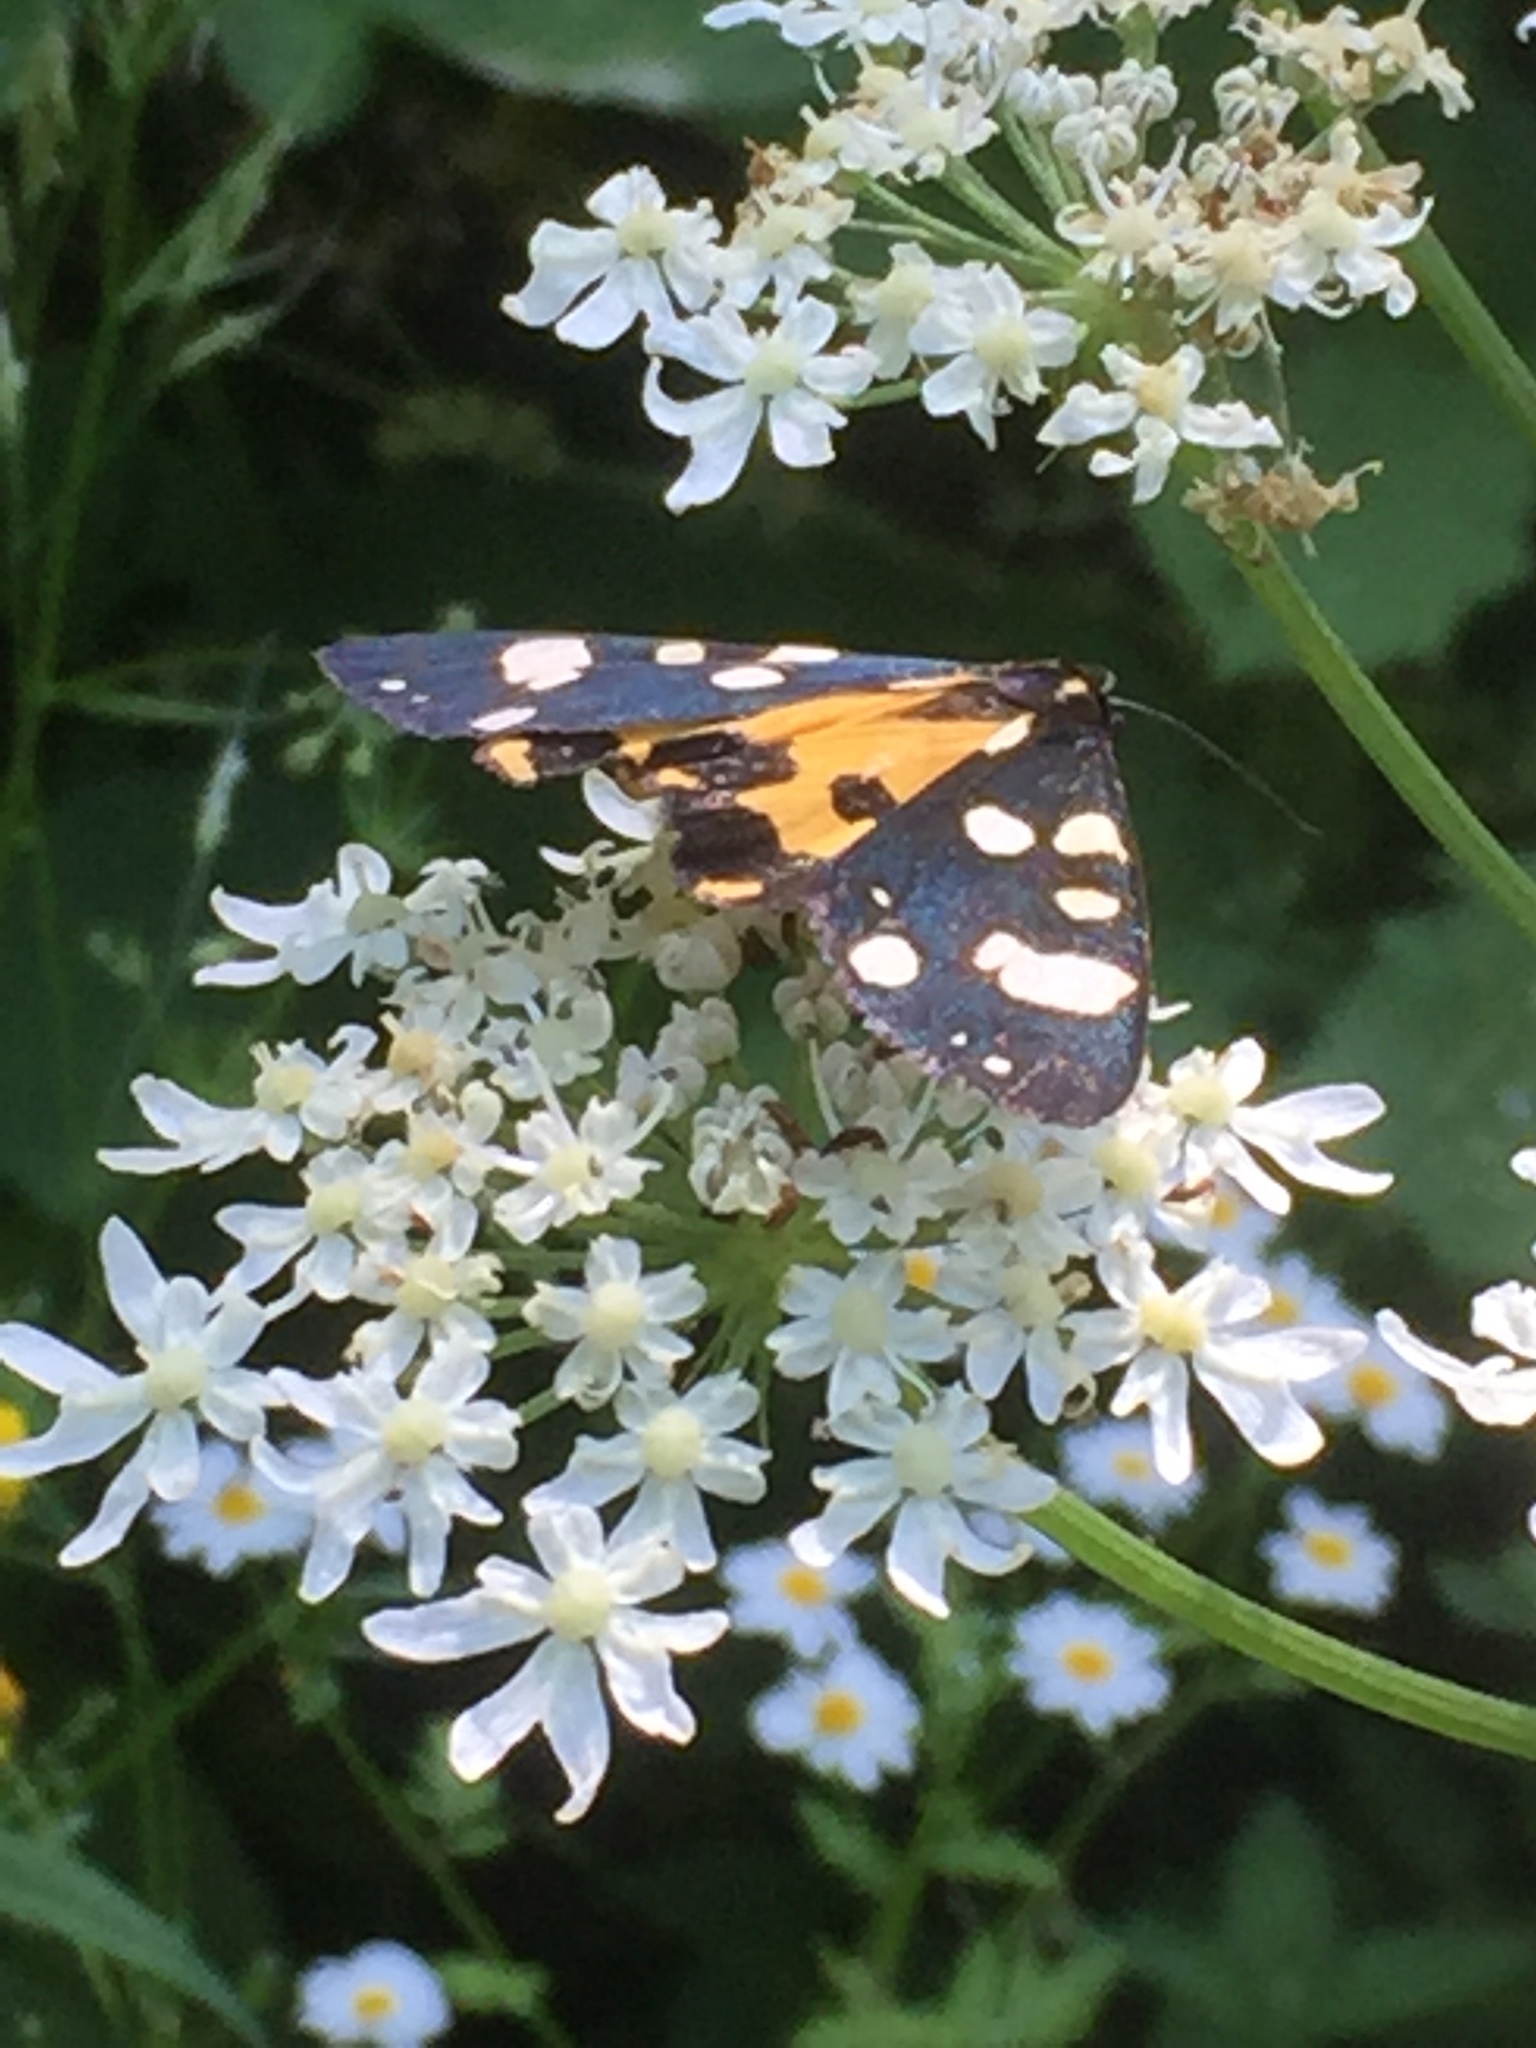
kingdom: Animalia
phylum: Arthropoda
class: Insecta
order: Lepidoptera
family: Erebidae
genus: Callimorpha
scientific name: Callimorpha dominula
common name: Scarlet tiger
